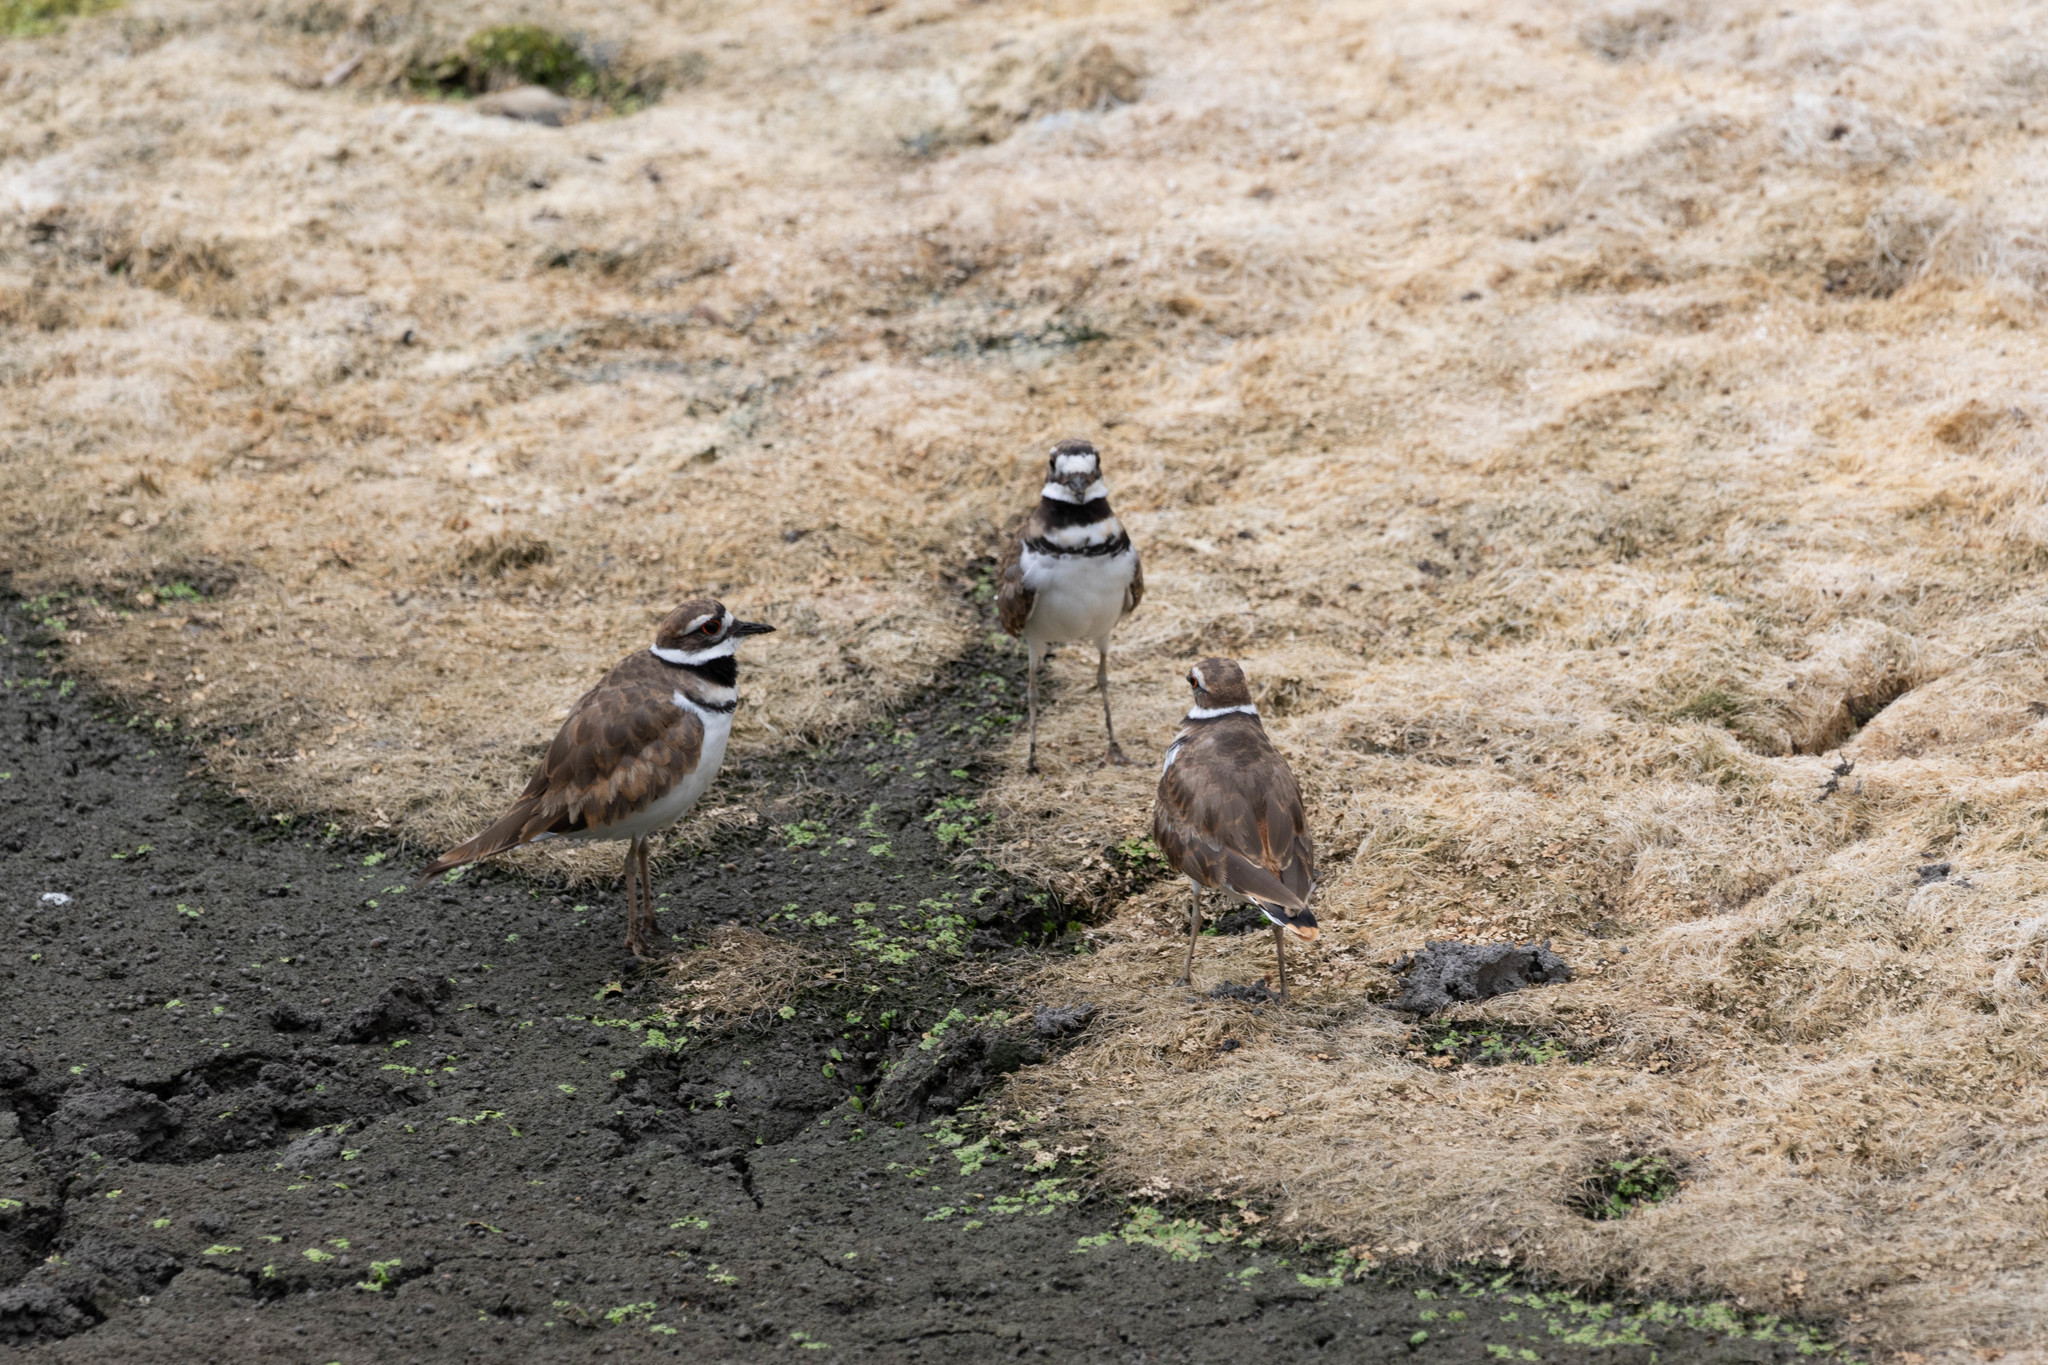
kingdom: Animalia
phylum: Chordata
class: Aves
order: Charadriiformes
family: Charadriidae
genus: Charadrius
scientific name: Charadrius vociferus
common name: Killdeer
